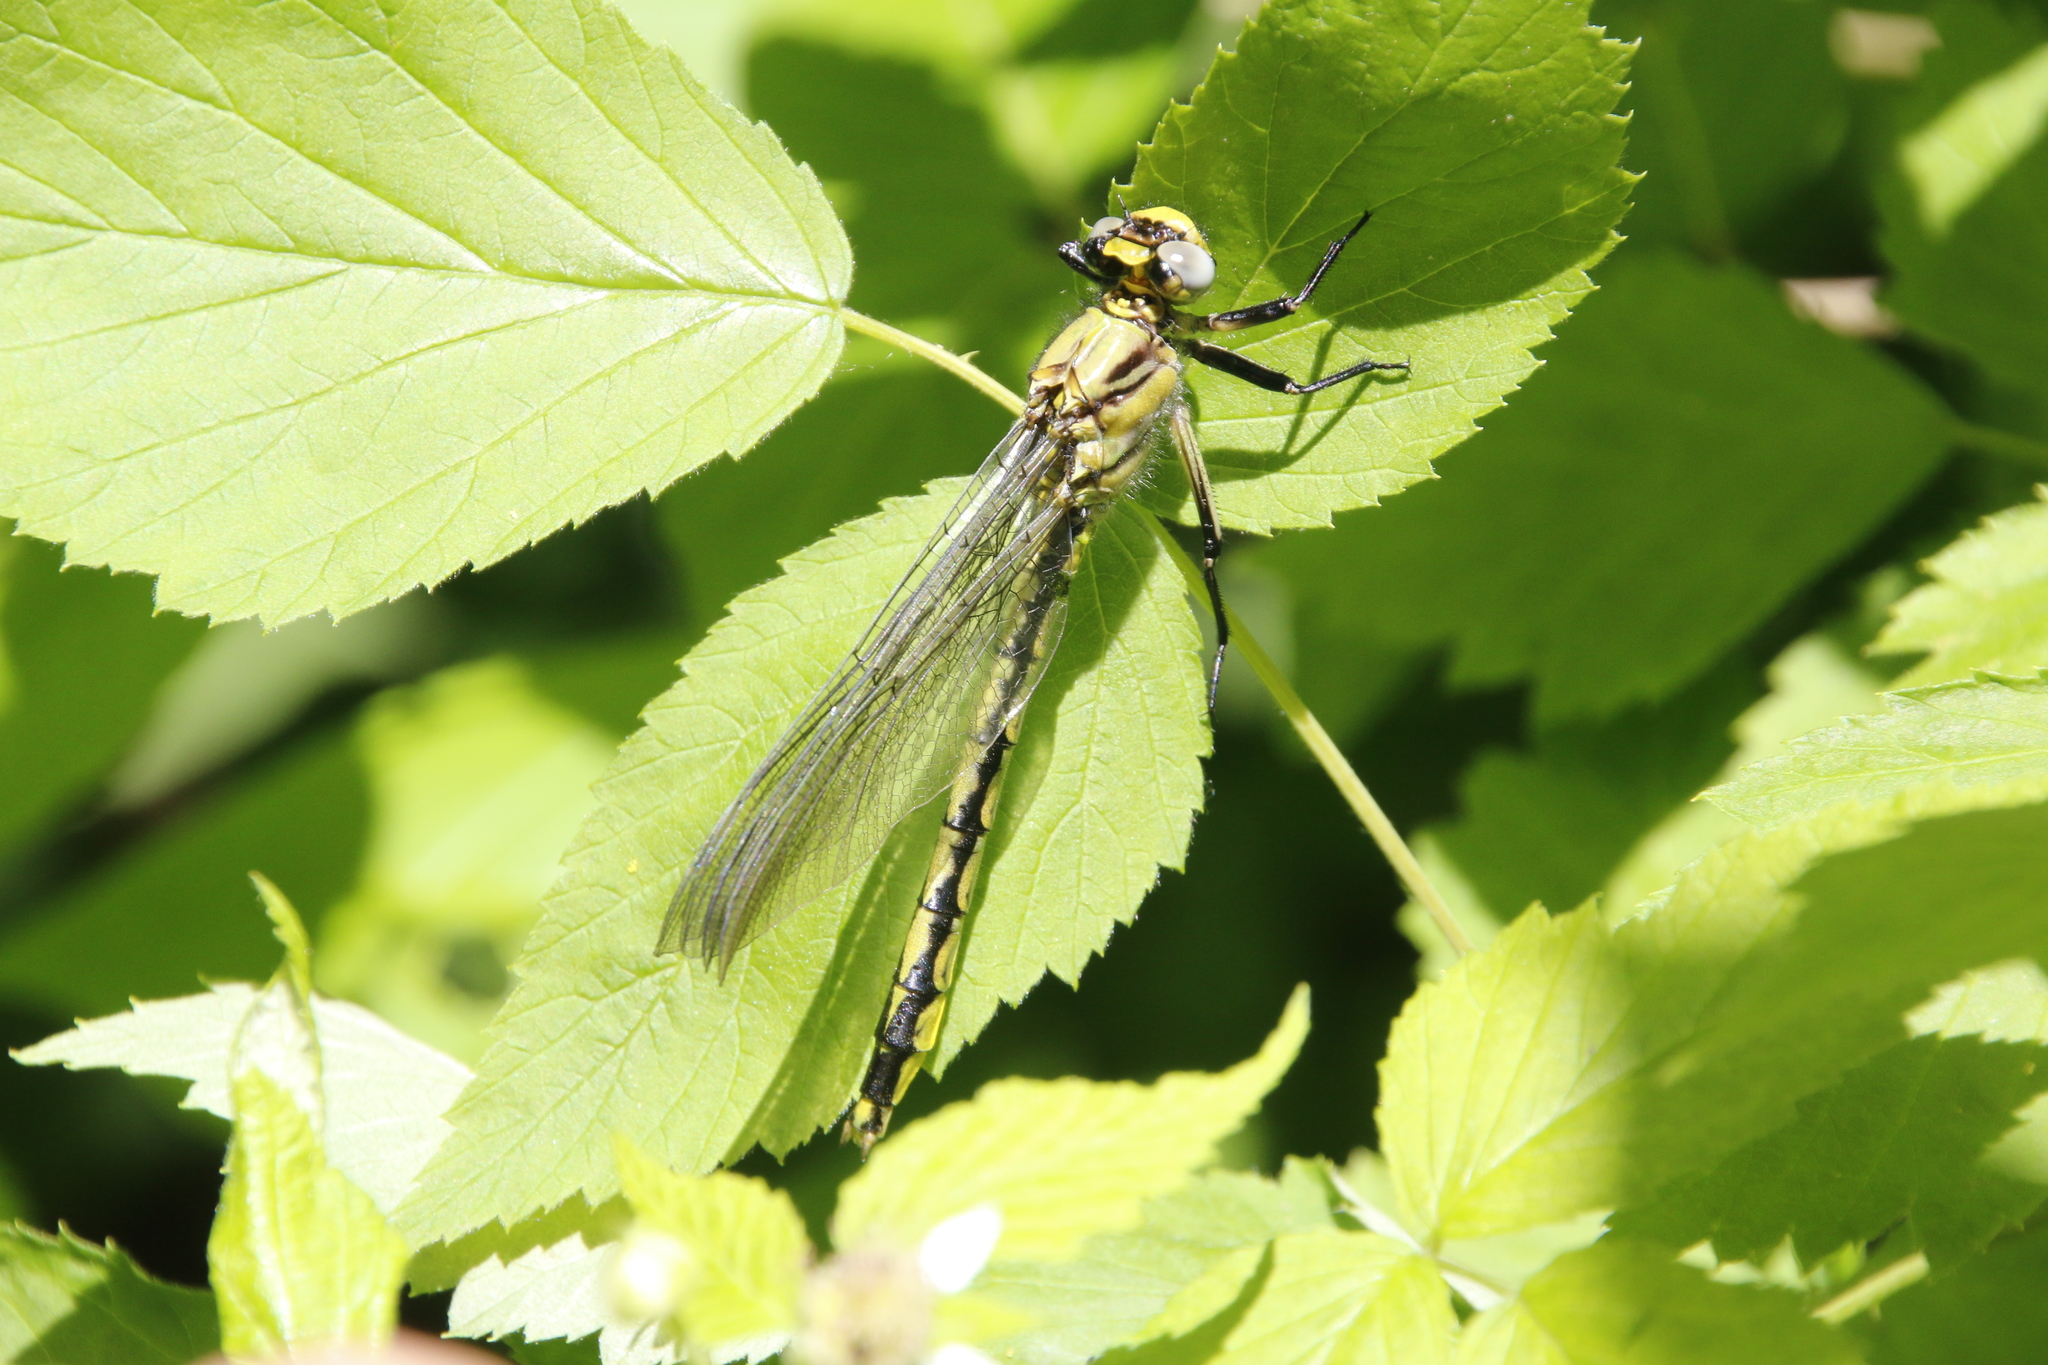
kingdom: Animalia
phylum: Arthropoda
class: Insecta
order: Odonata
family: Gomphidae
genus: Arigomphus
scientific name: Arigomphus cornutus
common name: Horned clubtail
